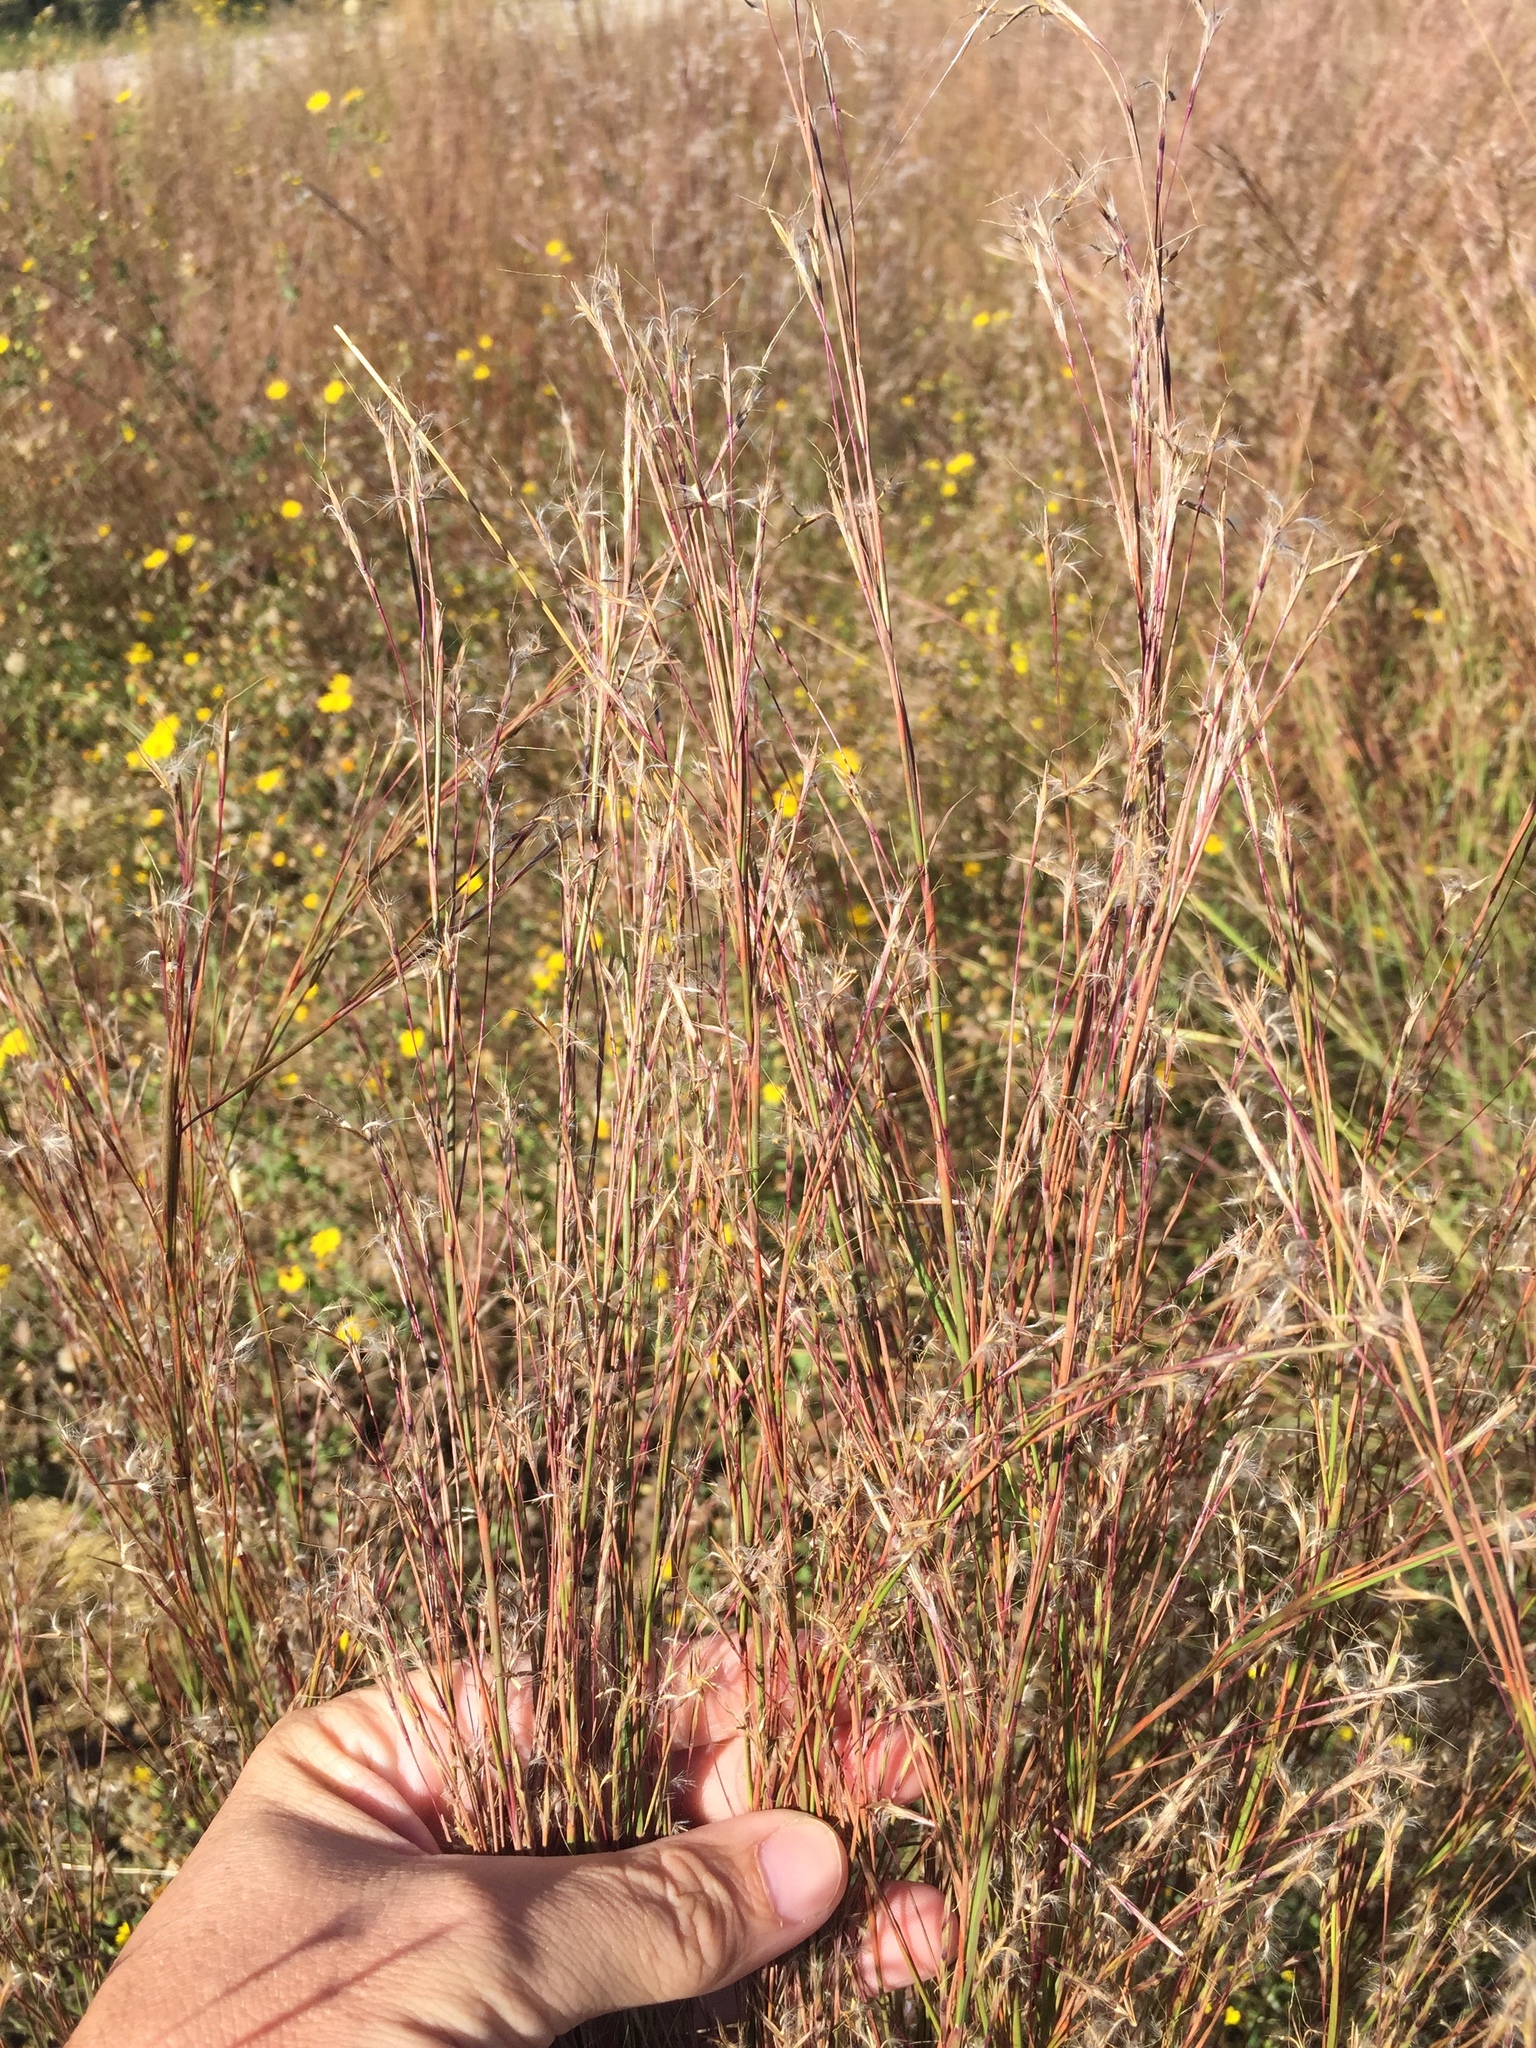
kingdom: Plantae
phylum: Tracheophyta
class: Liliopsida
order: Poales
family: Poaceae
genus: Schizachyrium
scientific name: Schizachyrium scoparium
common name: Little bluestem
